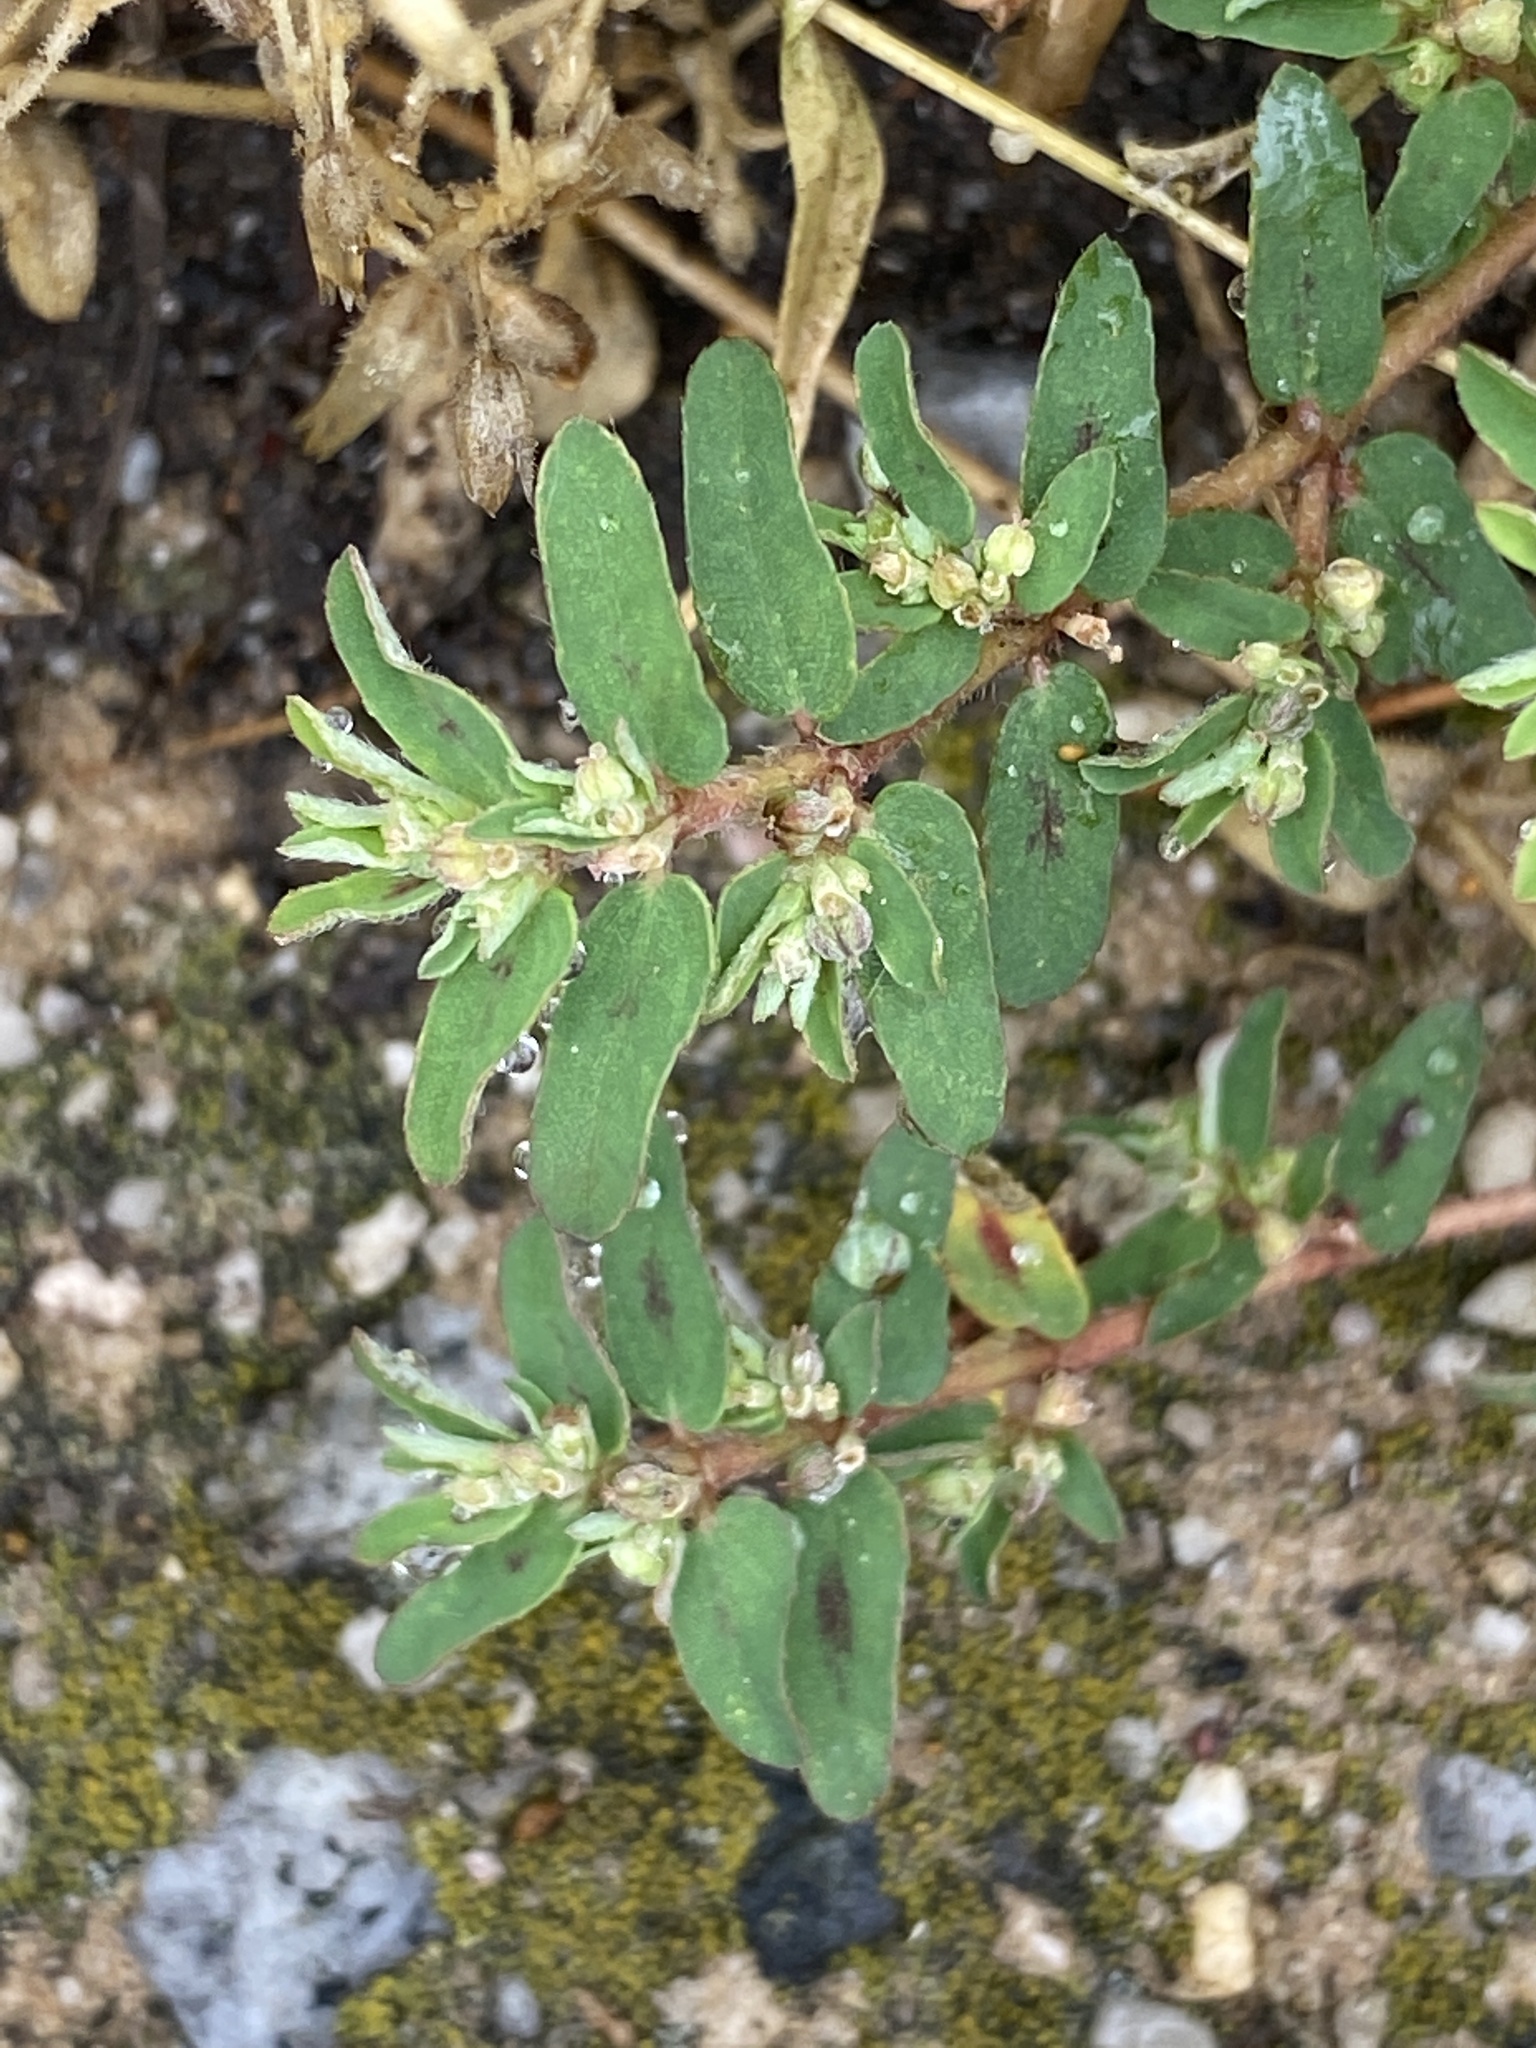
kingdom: Plantae
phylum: Tracheophyta
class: Magnoliopsida
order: Malpighiales
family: Euphorbiaceae
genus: Euphorbia
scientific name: Euphorbia maculata
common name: Spotted spurge
